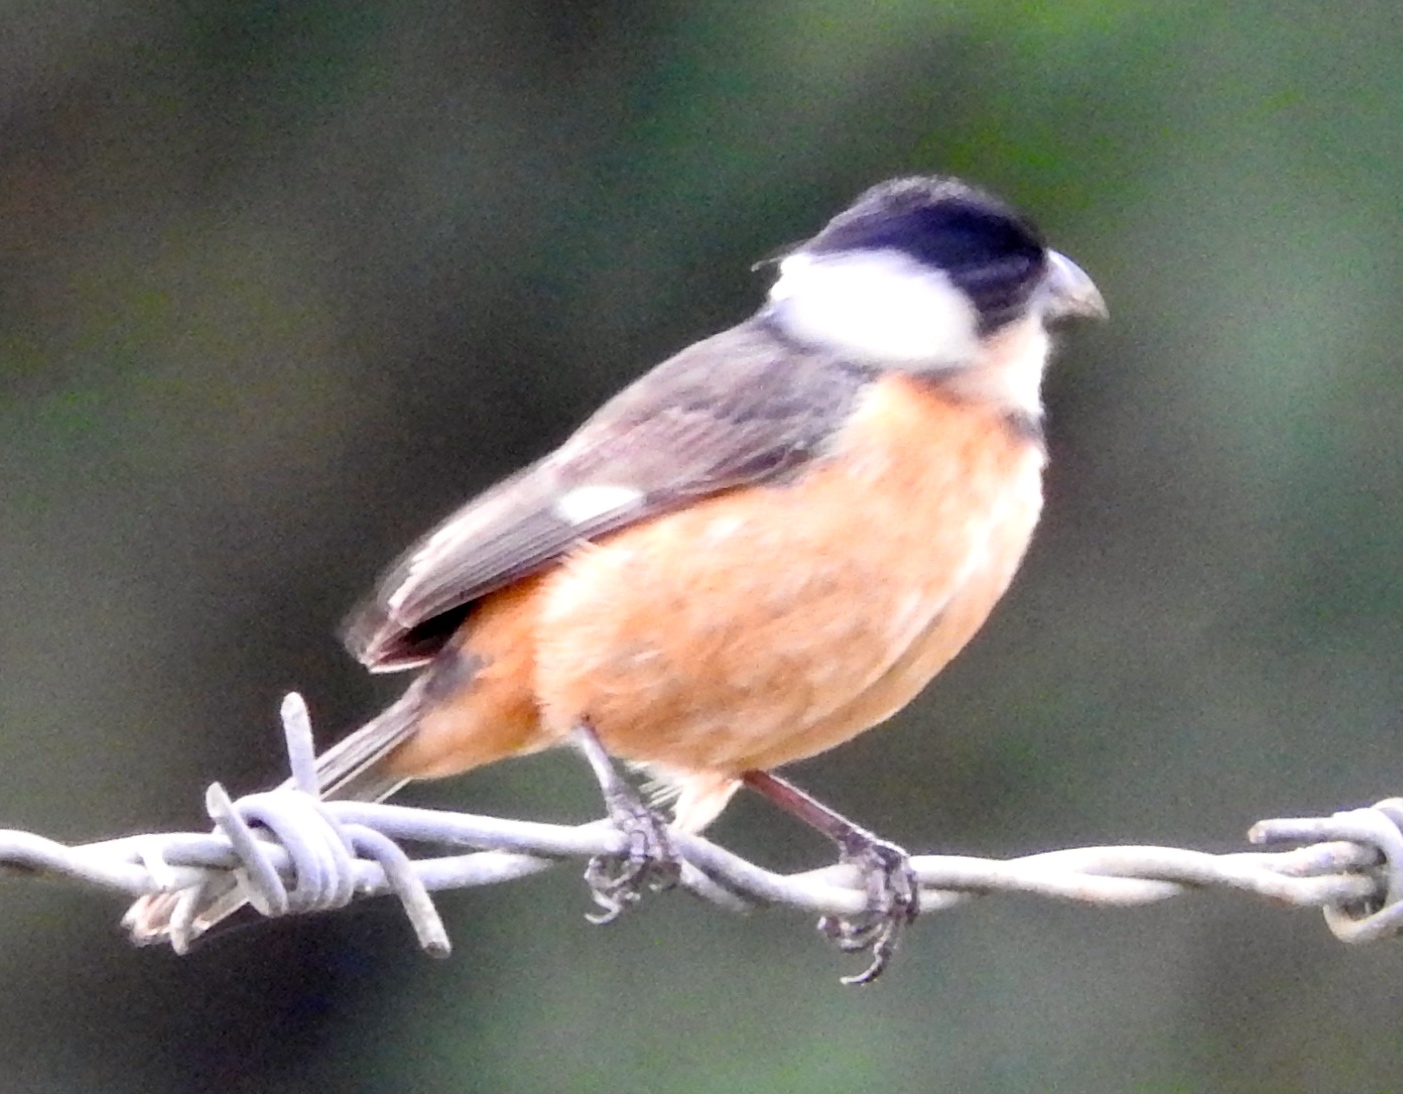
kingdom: Animalia
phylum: Chordata
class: Aves
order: Passeriformes
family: Thraupidae
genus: Sporophila
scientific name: Sporophila torqueola
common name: White-collared seedeater
